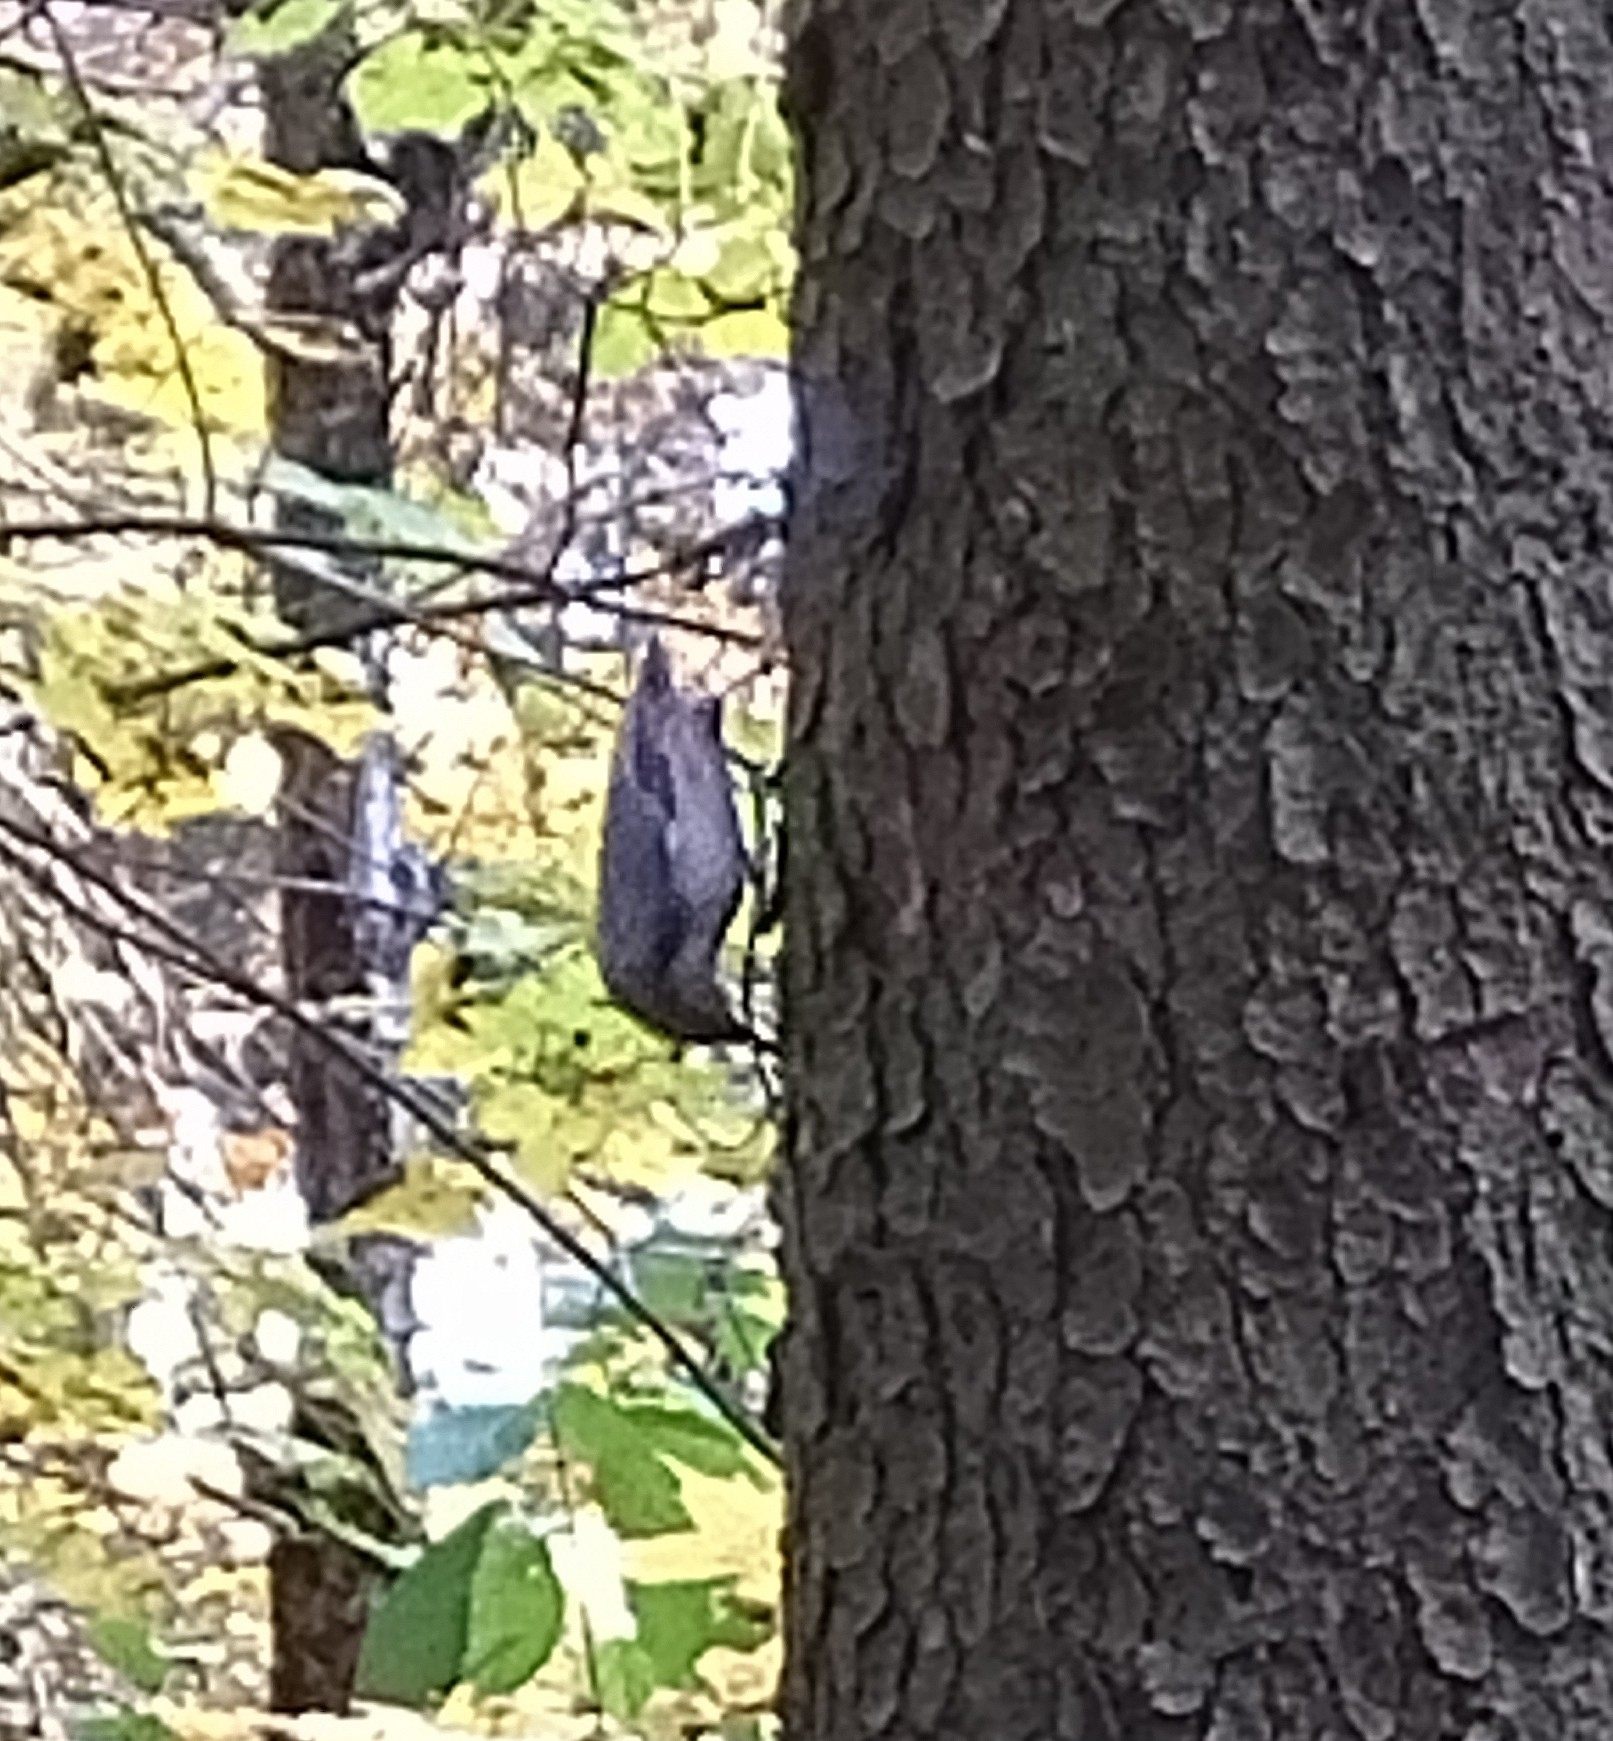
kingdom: Animalia
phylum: Chordata
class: Aves
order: Passeriformes
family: Sittidae
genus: Sitta
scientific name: Sitta europaea
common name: Eurasian nuthatch
